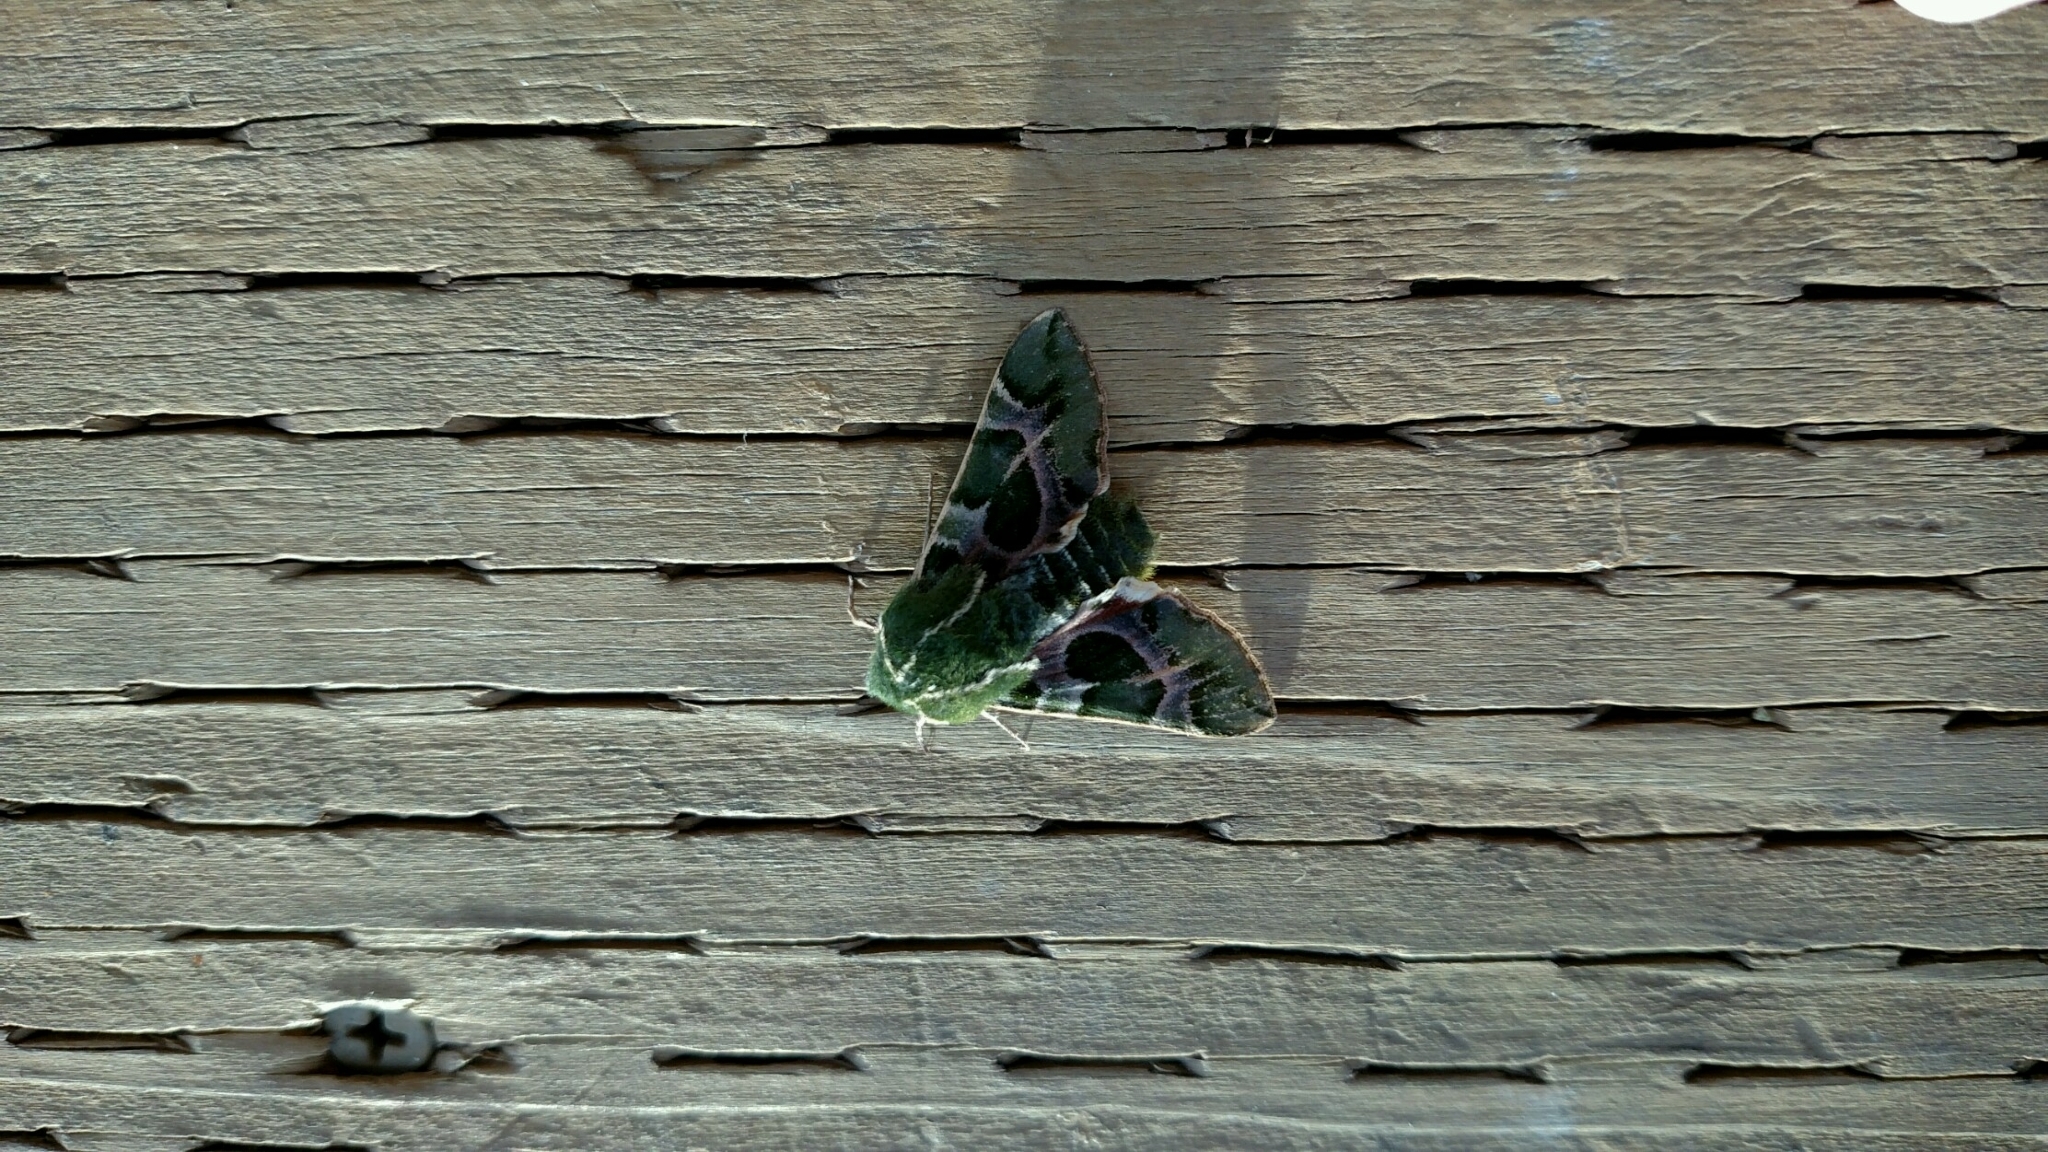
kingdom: Animalia
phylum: Arthropoda
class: Insecta
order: Lepidoptera
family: Sphingidae
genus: Proserpinus
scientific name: Proserpinus lucidus
